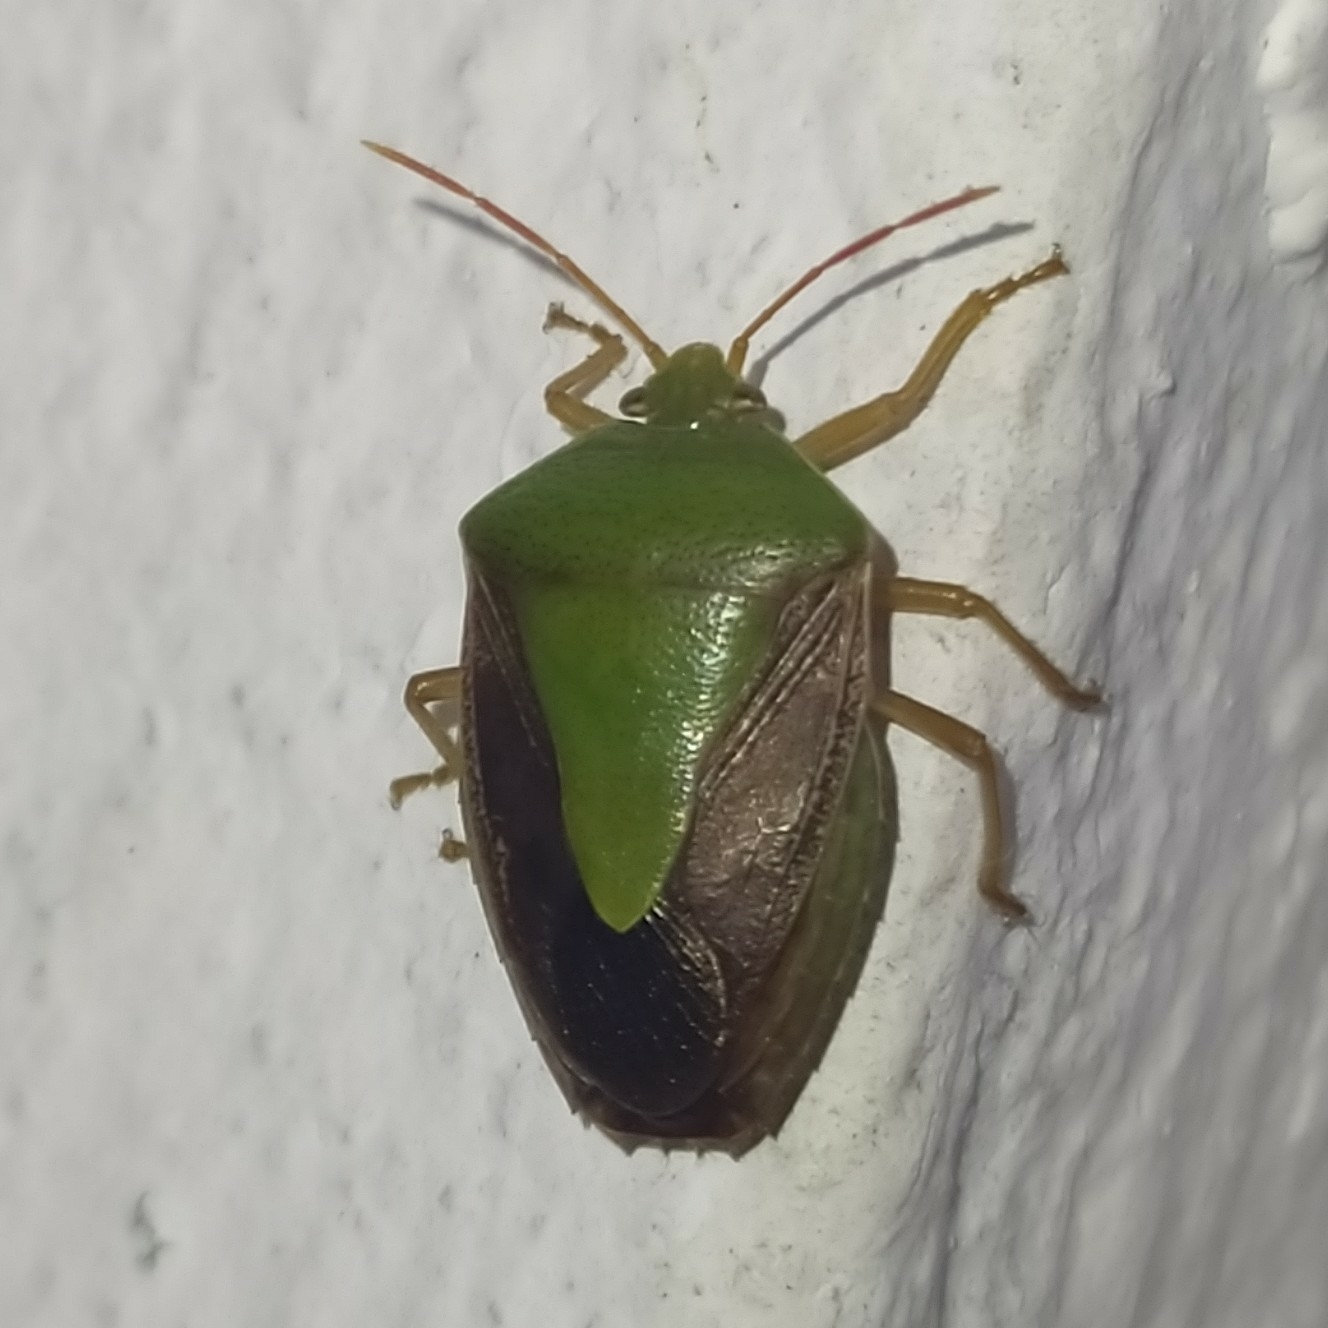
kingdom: Animalia
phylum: Arthropoda
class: Insecta
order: Hemiptera
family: Pentatomidae
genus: Edessa
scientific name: Edessa meditabunda
